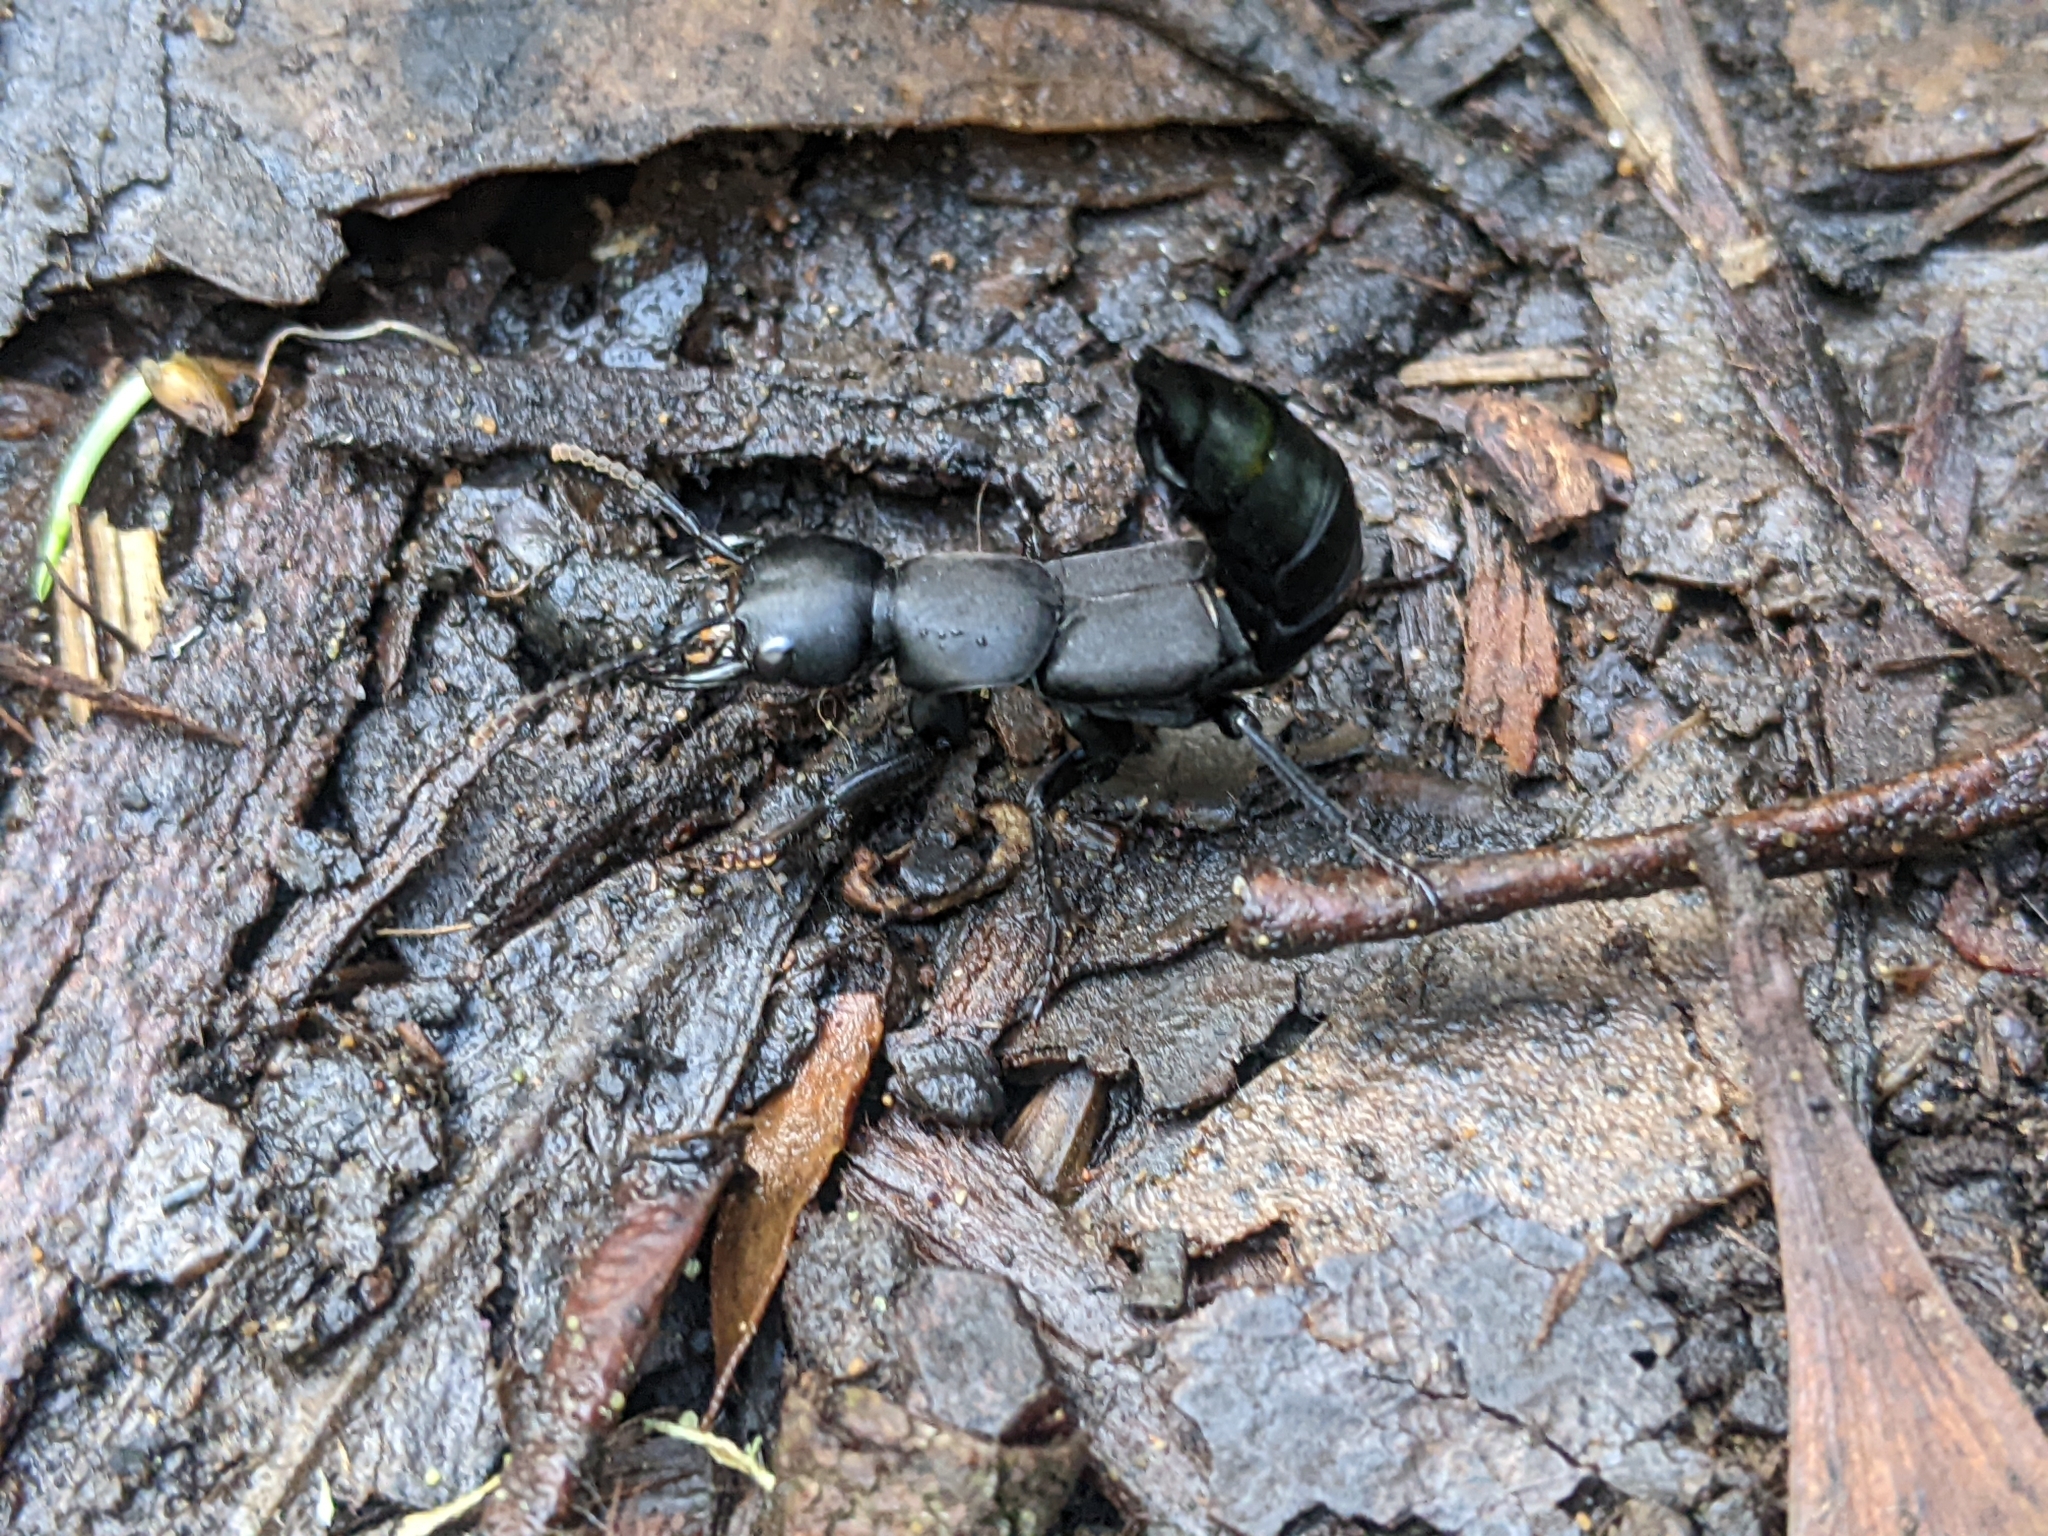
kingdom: Animalia
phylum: Arthropoda
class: Insecta
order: Coleoptera
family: Staphylinidae
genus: Ocypus
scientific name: Ocypus olens
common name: Devil's coach-horse
